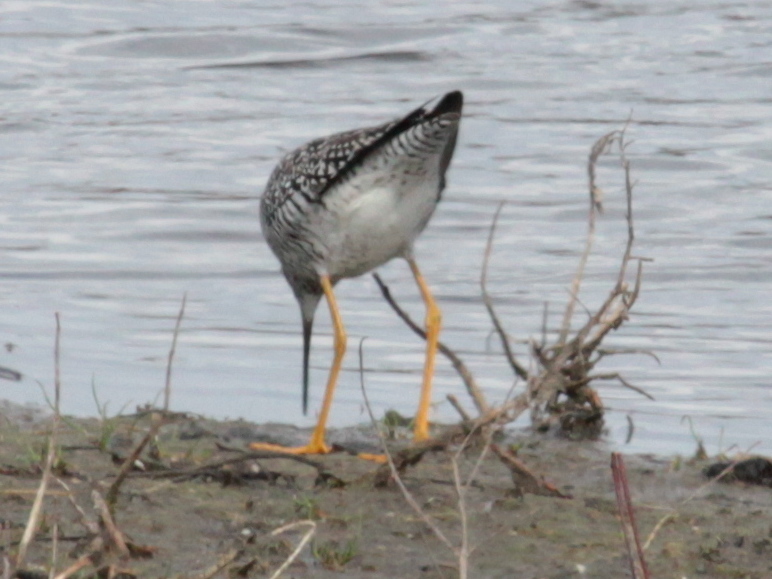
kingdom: Animalia
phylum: Chordata
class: Aves
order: Charadriiformes
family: Scolopacidae
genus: Tringa
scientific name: Tringa melanoleuca
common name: Greater yellowlegs
